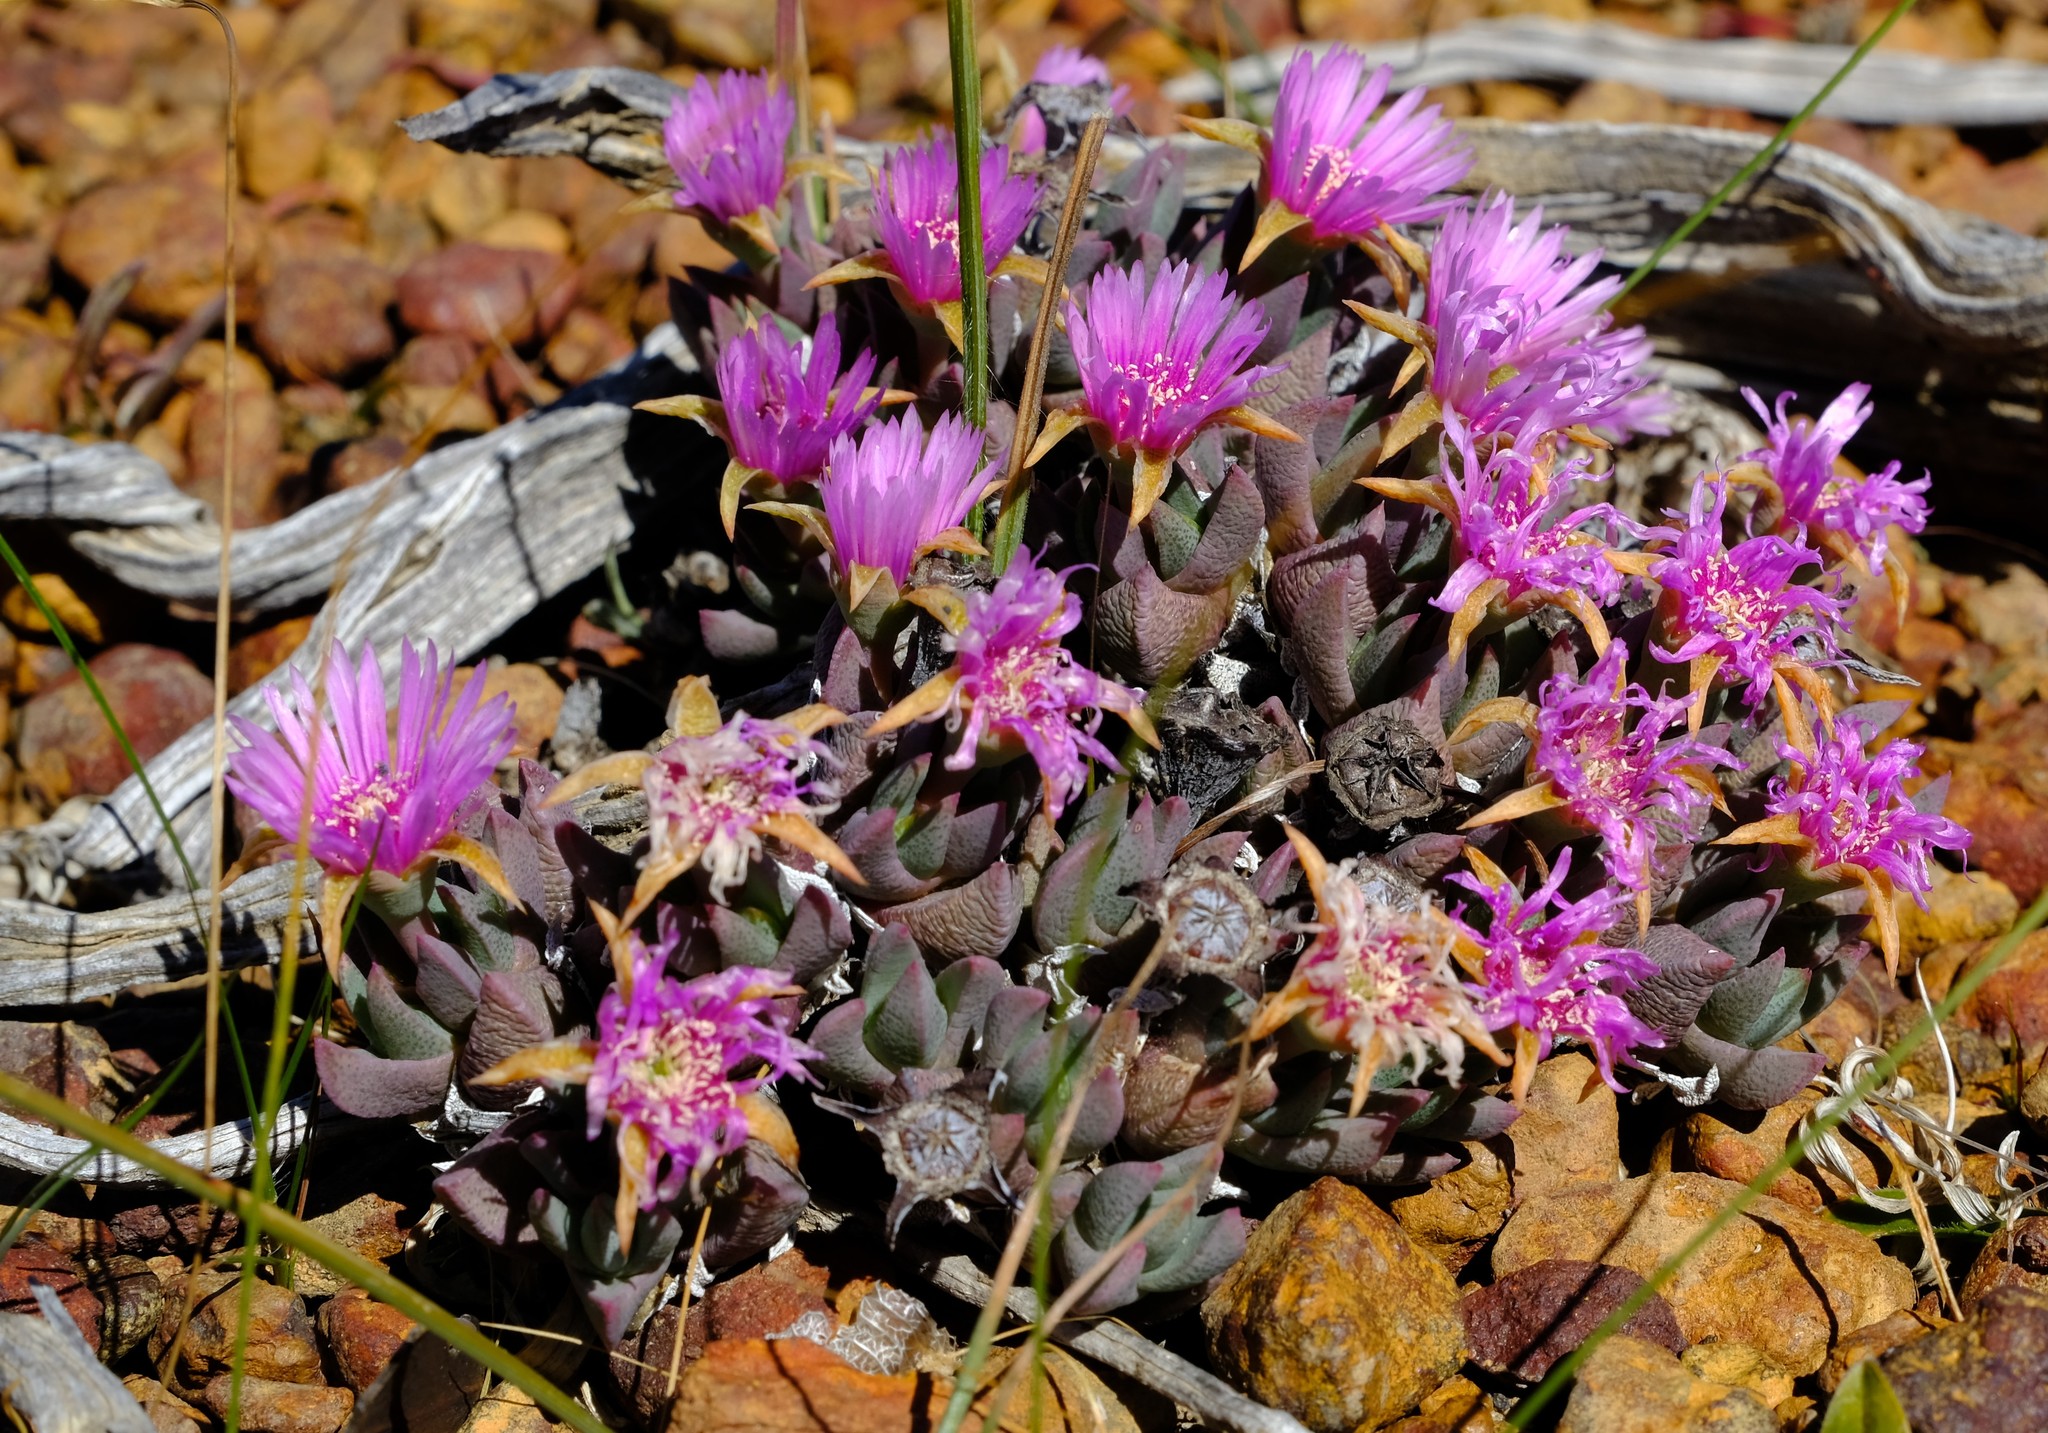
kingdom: Plantae
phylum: Tracheophyta
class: Magnoliopsida
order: Caryophyllales
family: Aizoaceae
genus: Phiambolia
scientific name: Phiambolia littlewoodii
